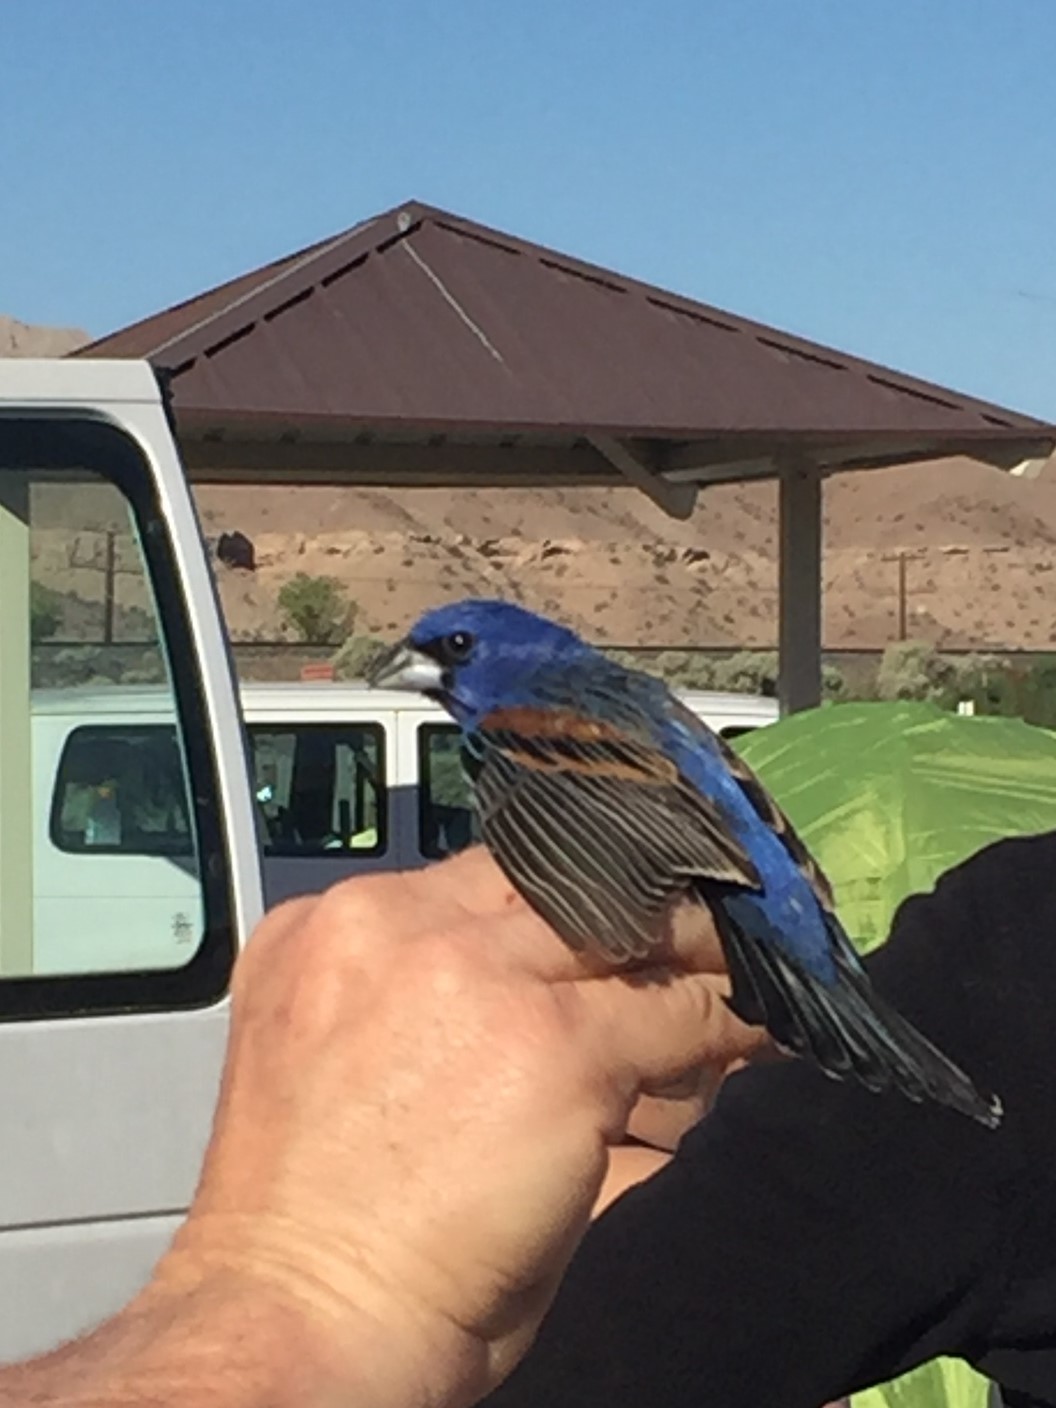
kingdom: Animalia
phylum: Chordata
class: Aves
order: Passeriformes
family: Cardinalidae
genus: Passerina
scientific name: Passerina caerulea
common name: Blue grosbeak
